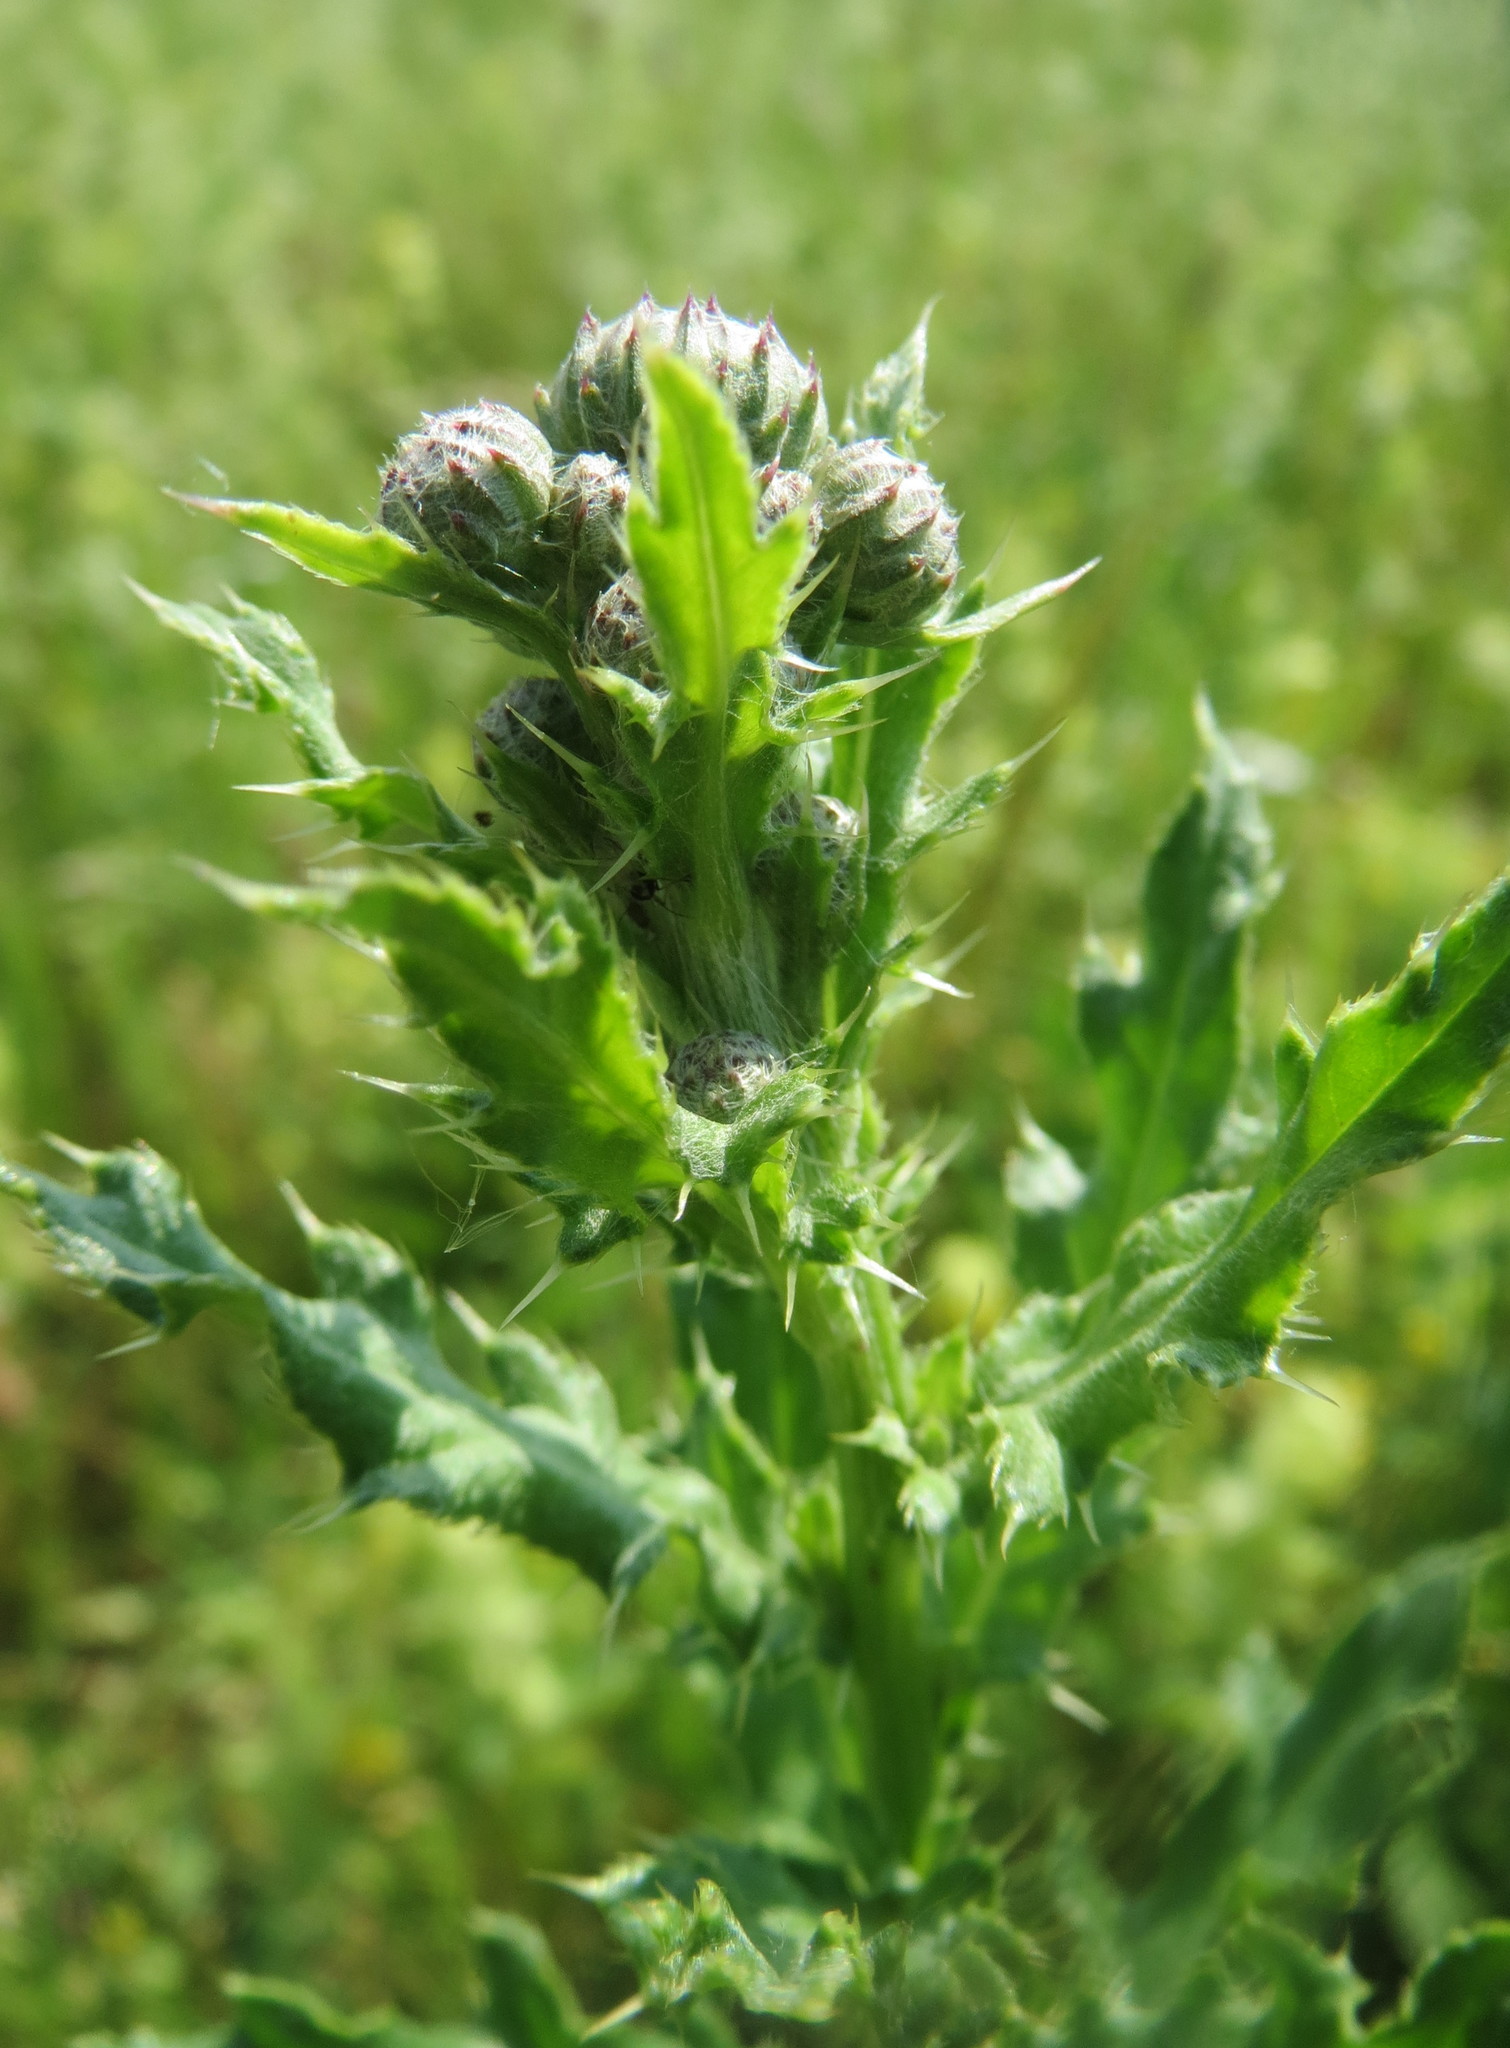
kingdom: Plantae
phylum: Tracheophyta
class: Magnoliopsida
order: Asterales
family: Asteraceae
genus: Cirsium
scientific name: Cirsium arvense
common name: Creeping thistle
